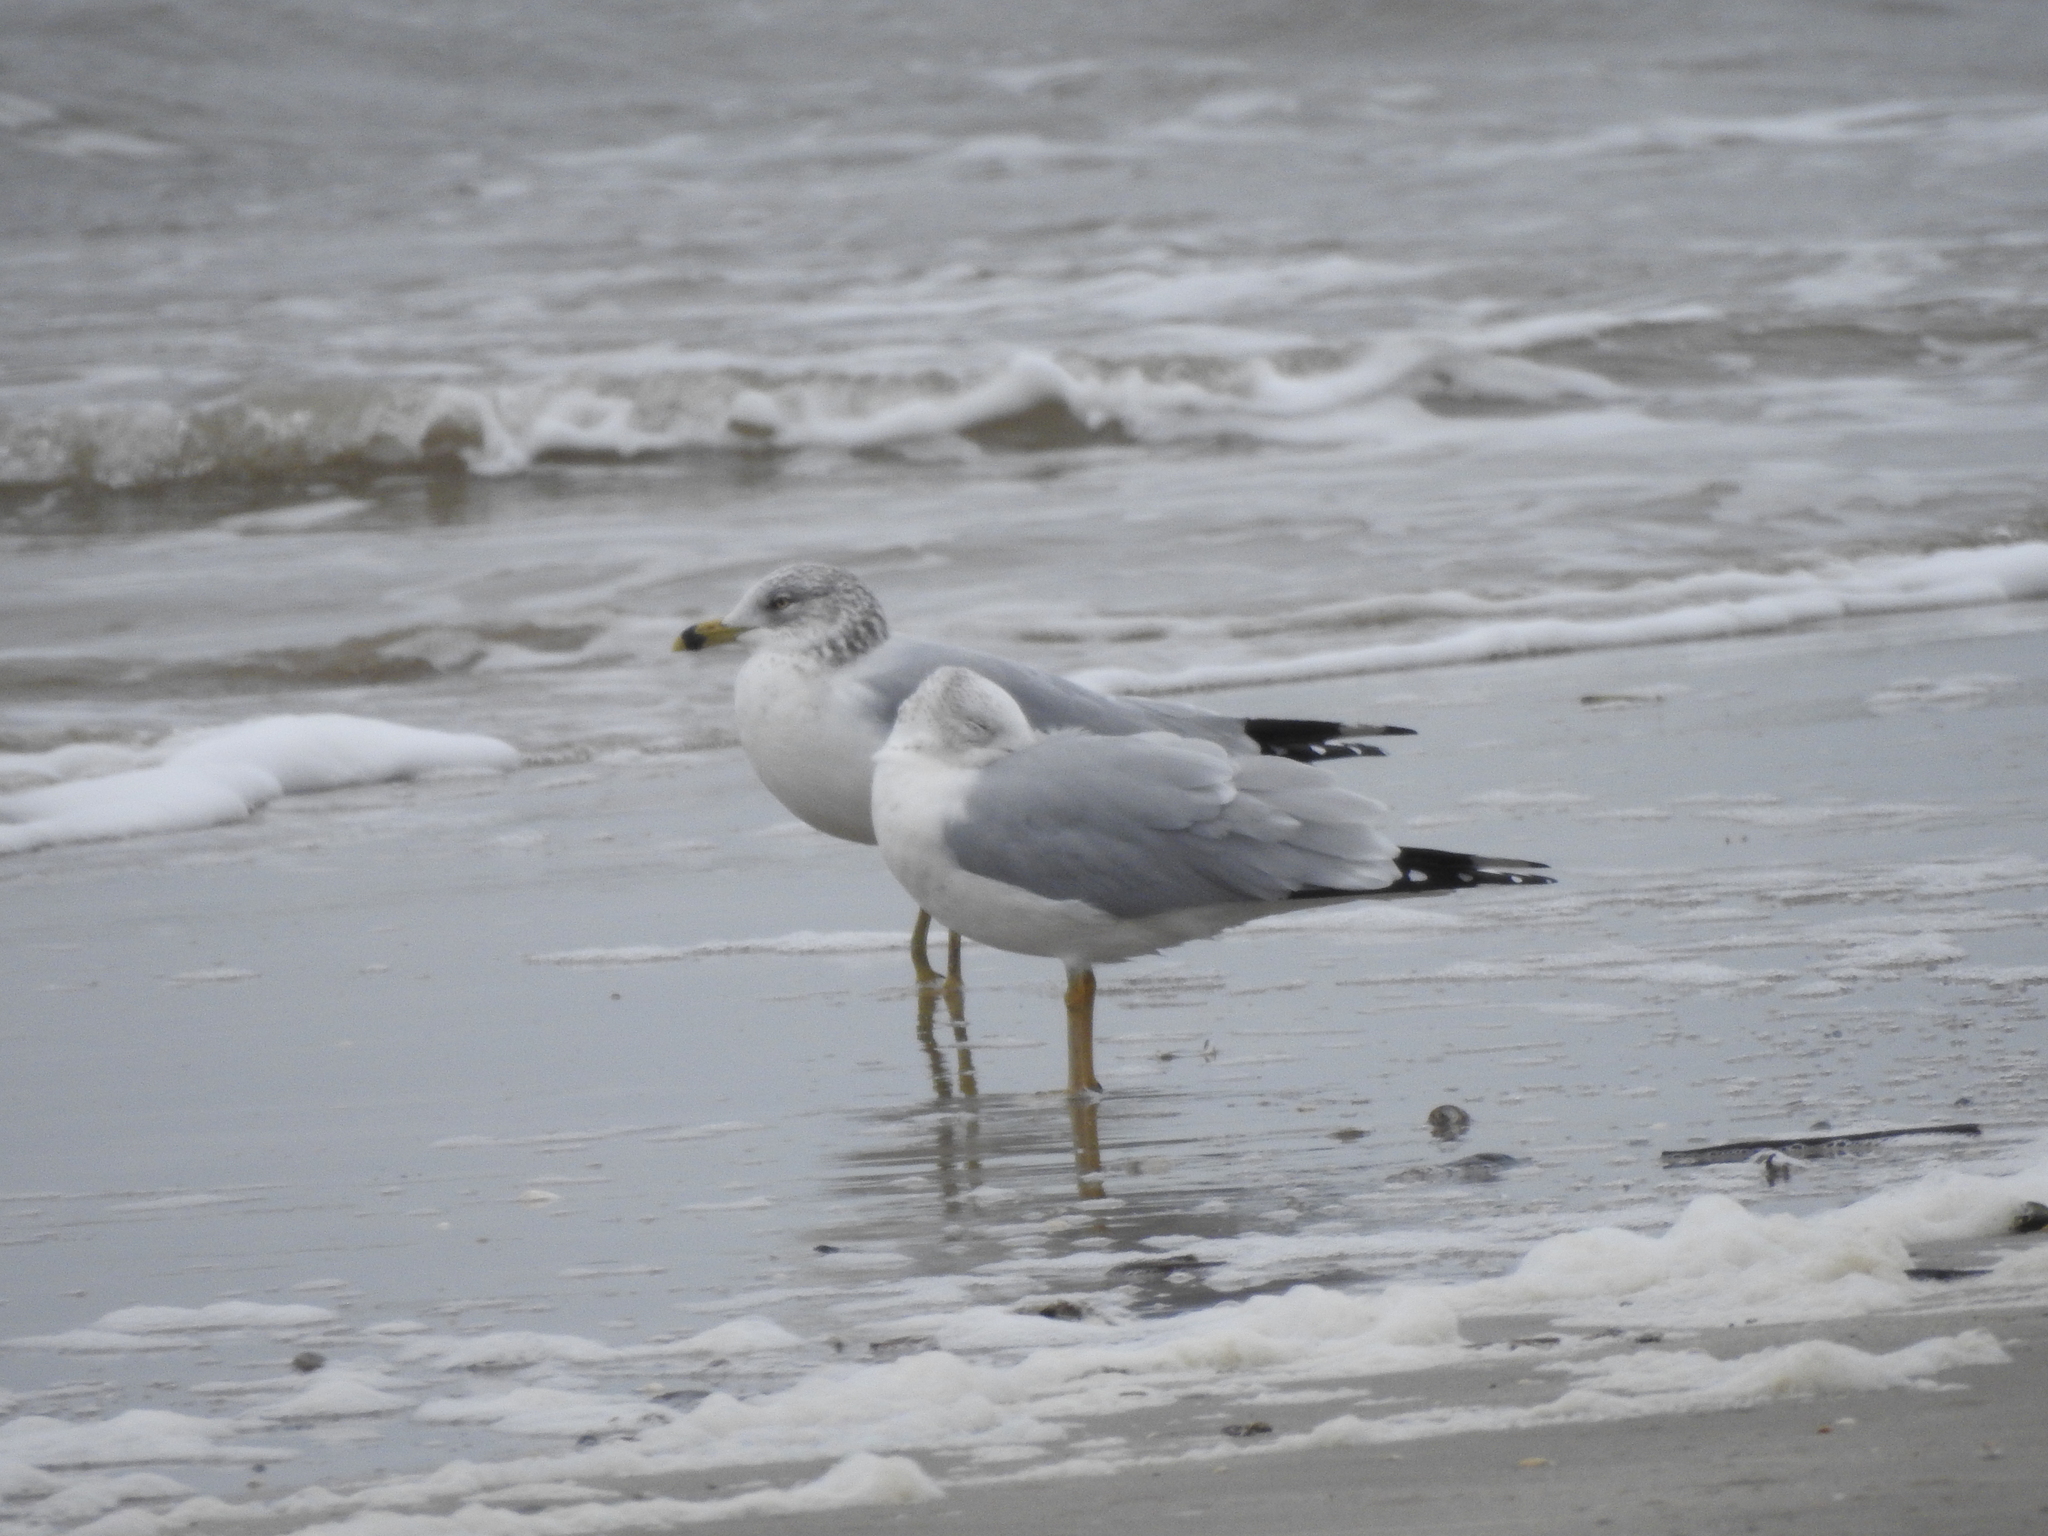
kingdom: Animalia
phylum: Chordata
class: Aves
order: Charadriiformes
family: Laridae
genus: Larus
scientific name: Larus delawarensis
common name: Ring-billed gull
